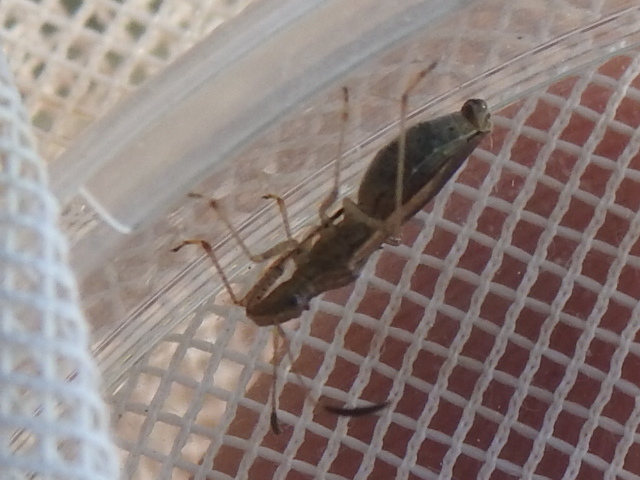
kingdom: Animalia
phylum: Arthropoda
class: Insecta
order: Hemiptera
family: Alydidae
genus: Esperanza
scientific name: Esperanza texana
